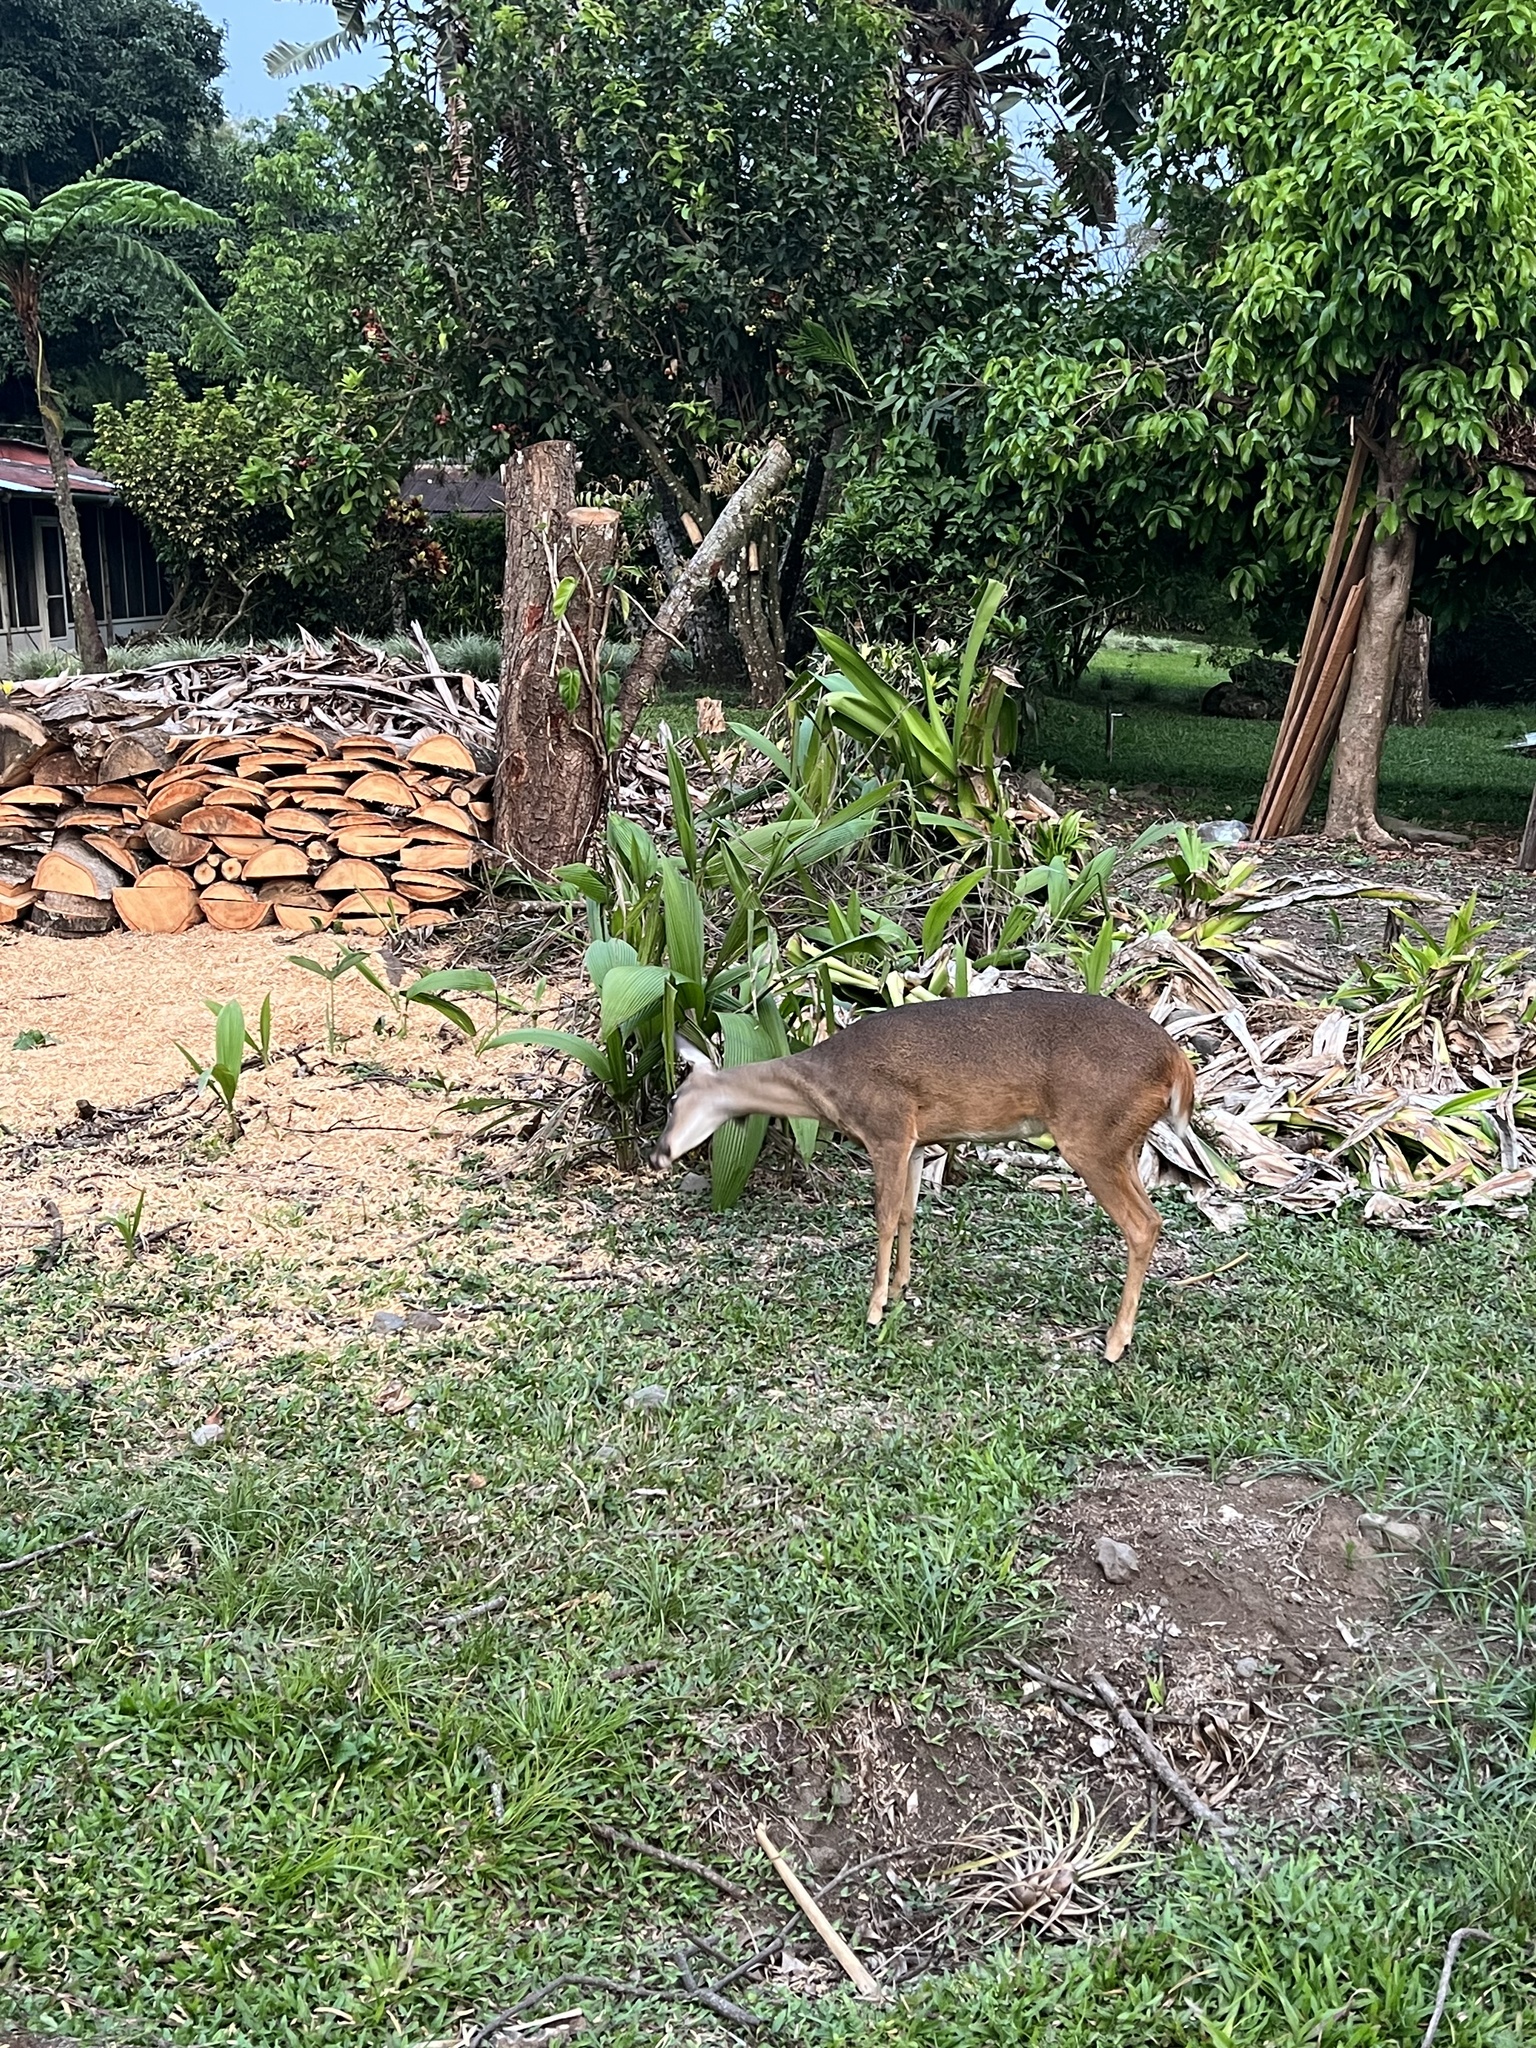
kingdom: Animalia
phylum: Chordata
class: Mammalia
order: Artiodactyla
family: Cervidae
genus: Odocoileus
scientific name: Odocoileus virginianus
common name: White-tailed deer
